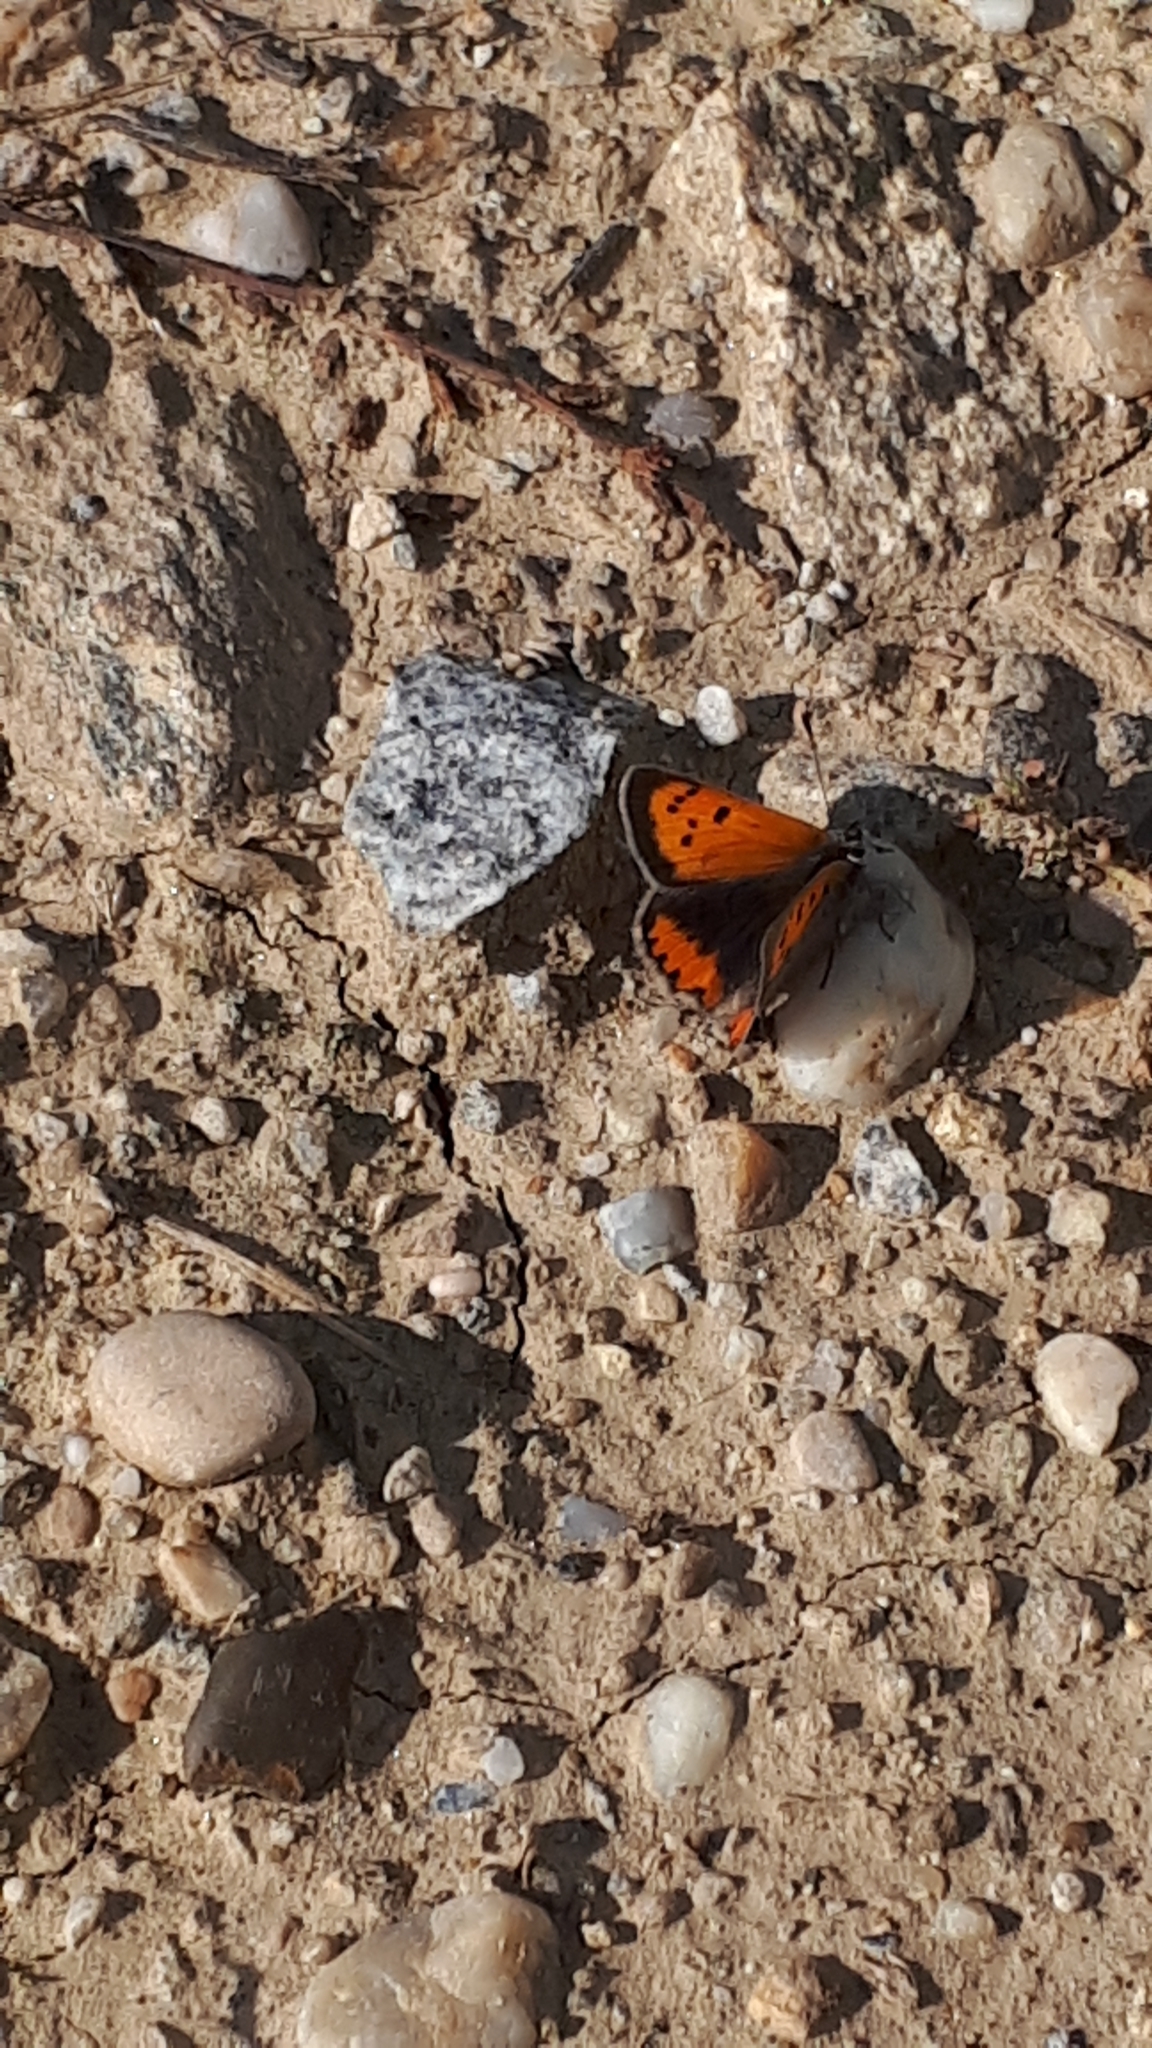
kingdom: Animalia
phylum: Arthropoda
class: Insecta
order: Lepidoptera
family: Lycaenidae
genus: Lycaena
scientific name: Lycaena phlaeas
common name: Small copper
